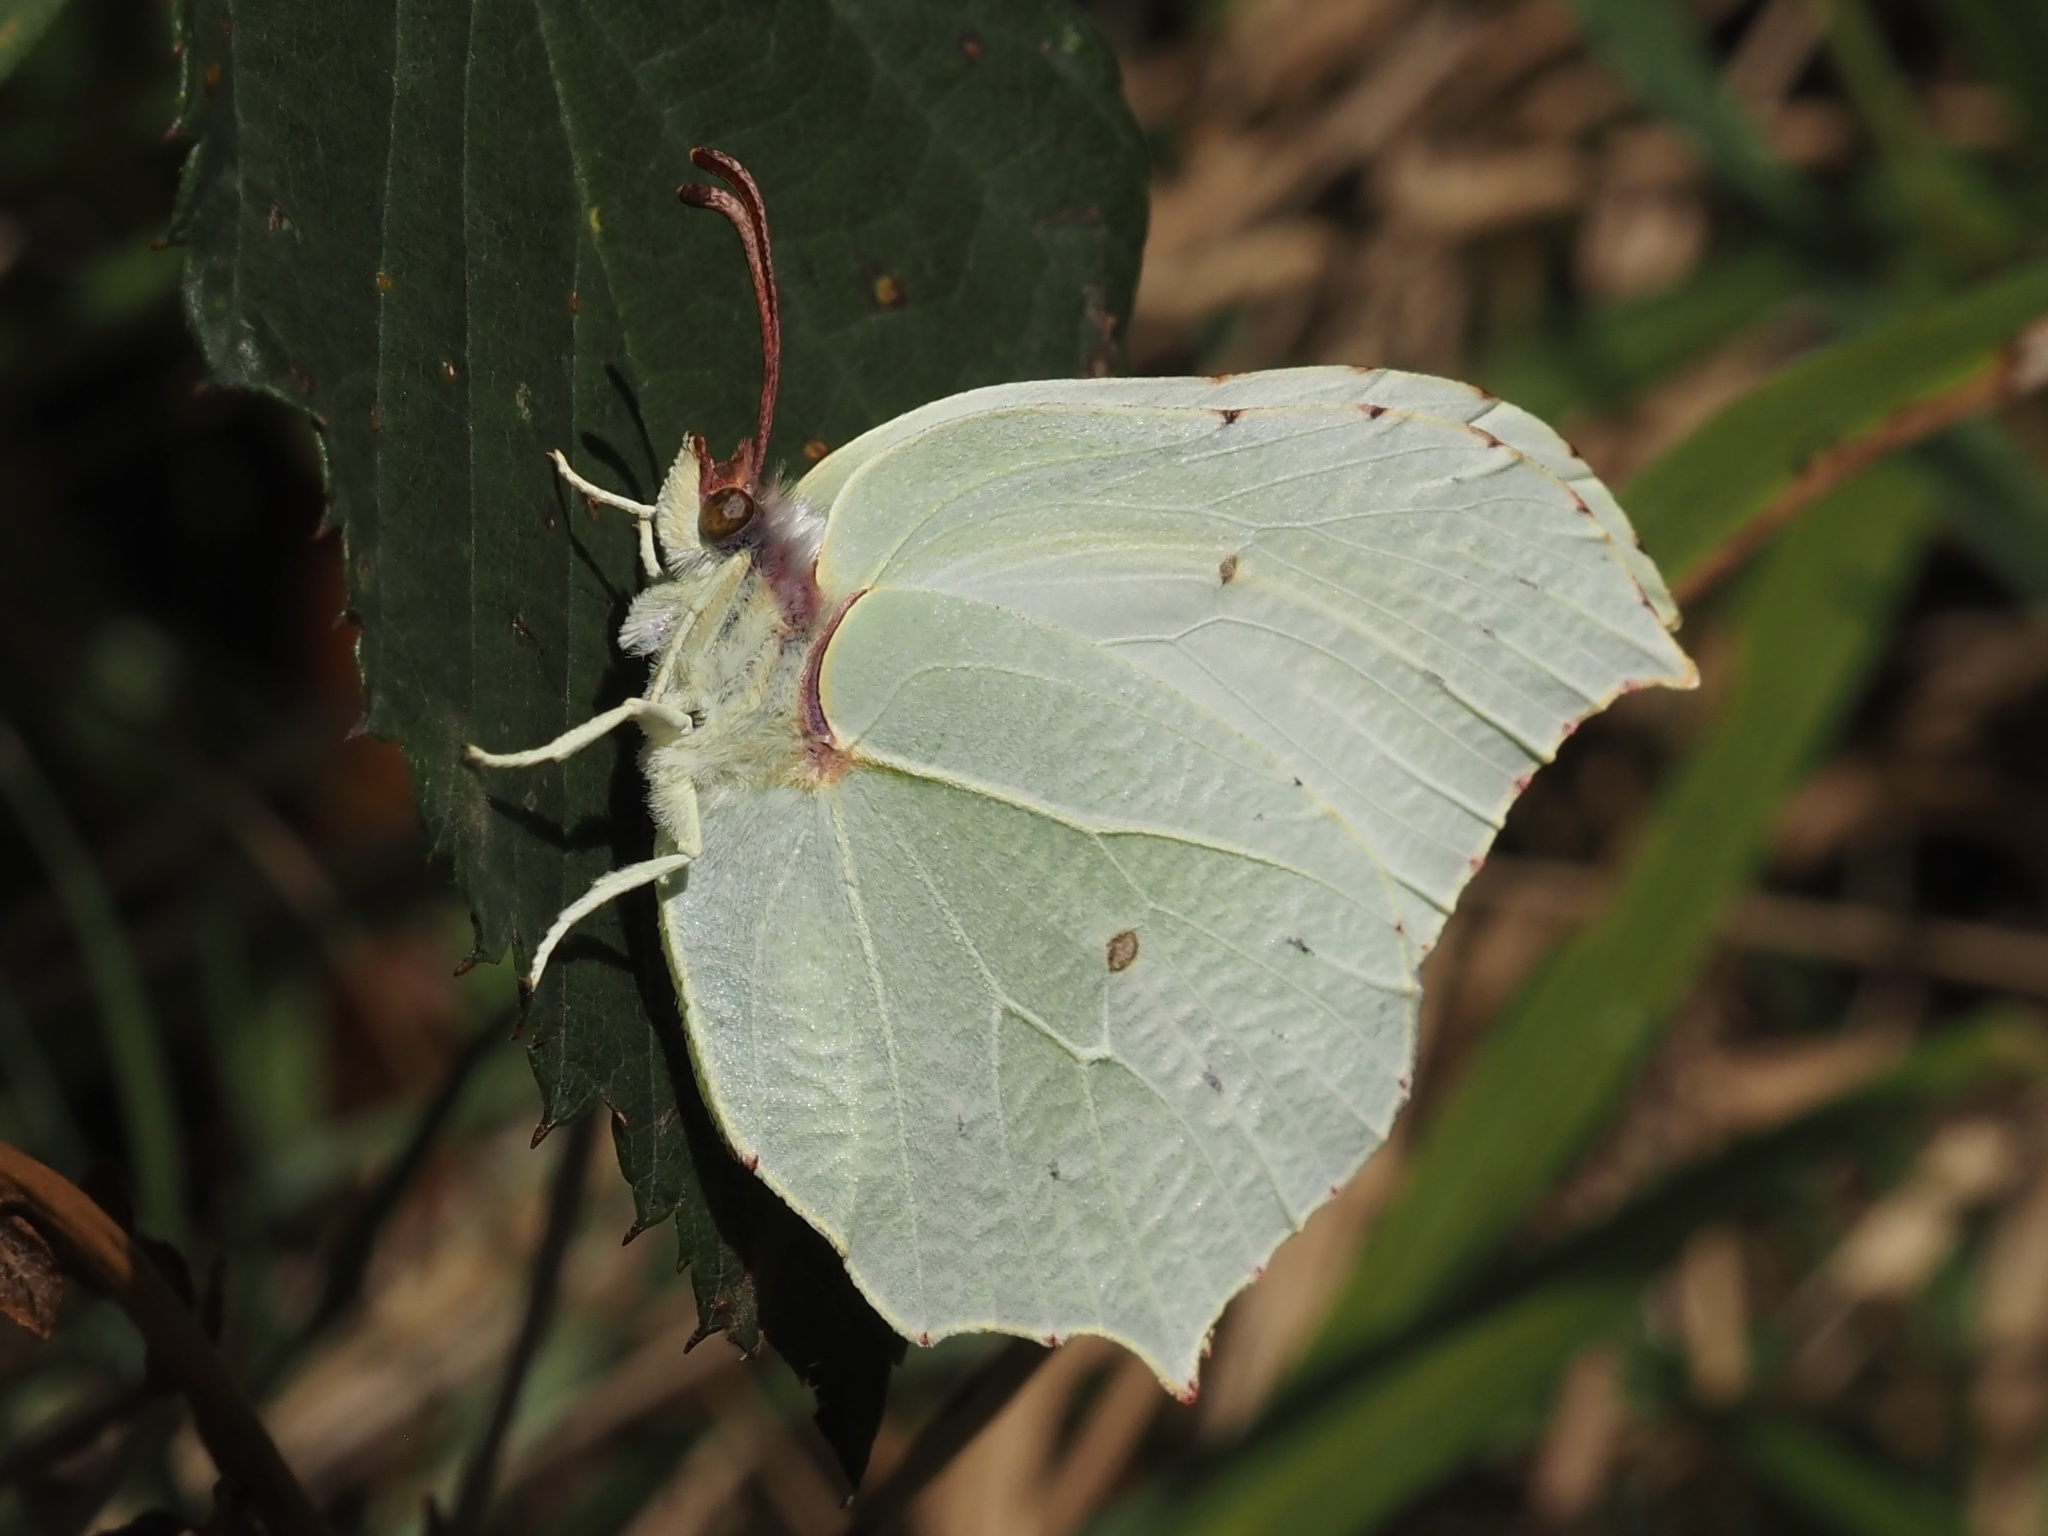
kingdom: Animalia
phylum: Arthropoda
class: Insecta
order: Lepidoptera
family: Pieridae
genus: Gonepteryx
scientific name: Gonepteryx rhamni
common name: Brimstone
